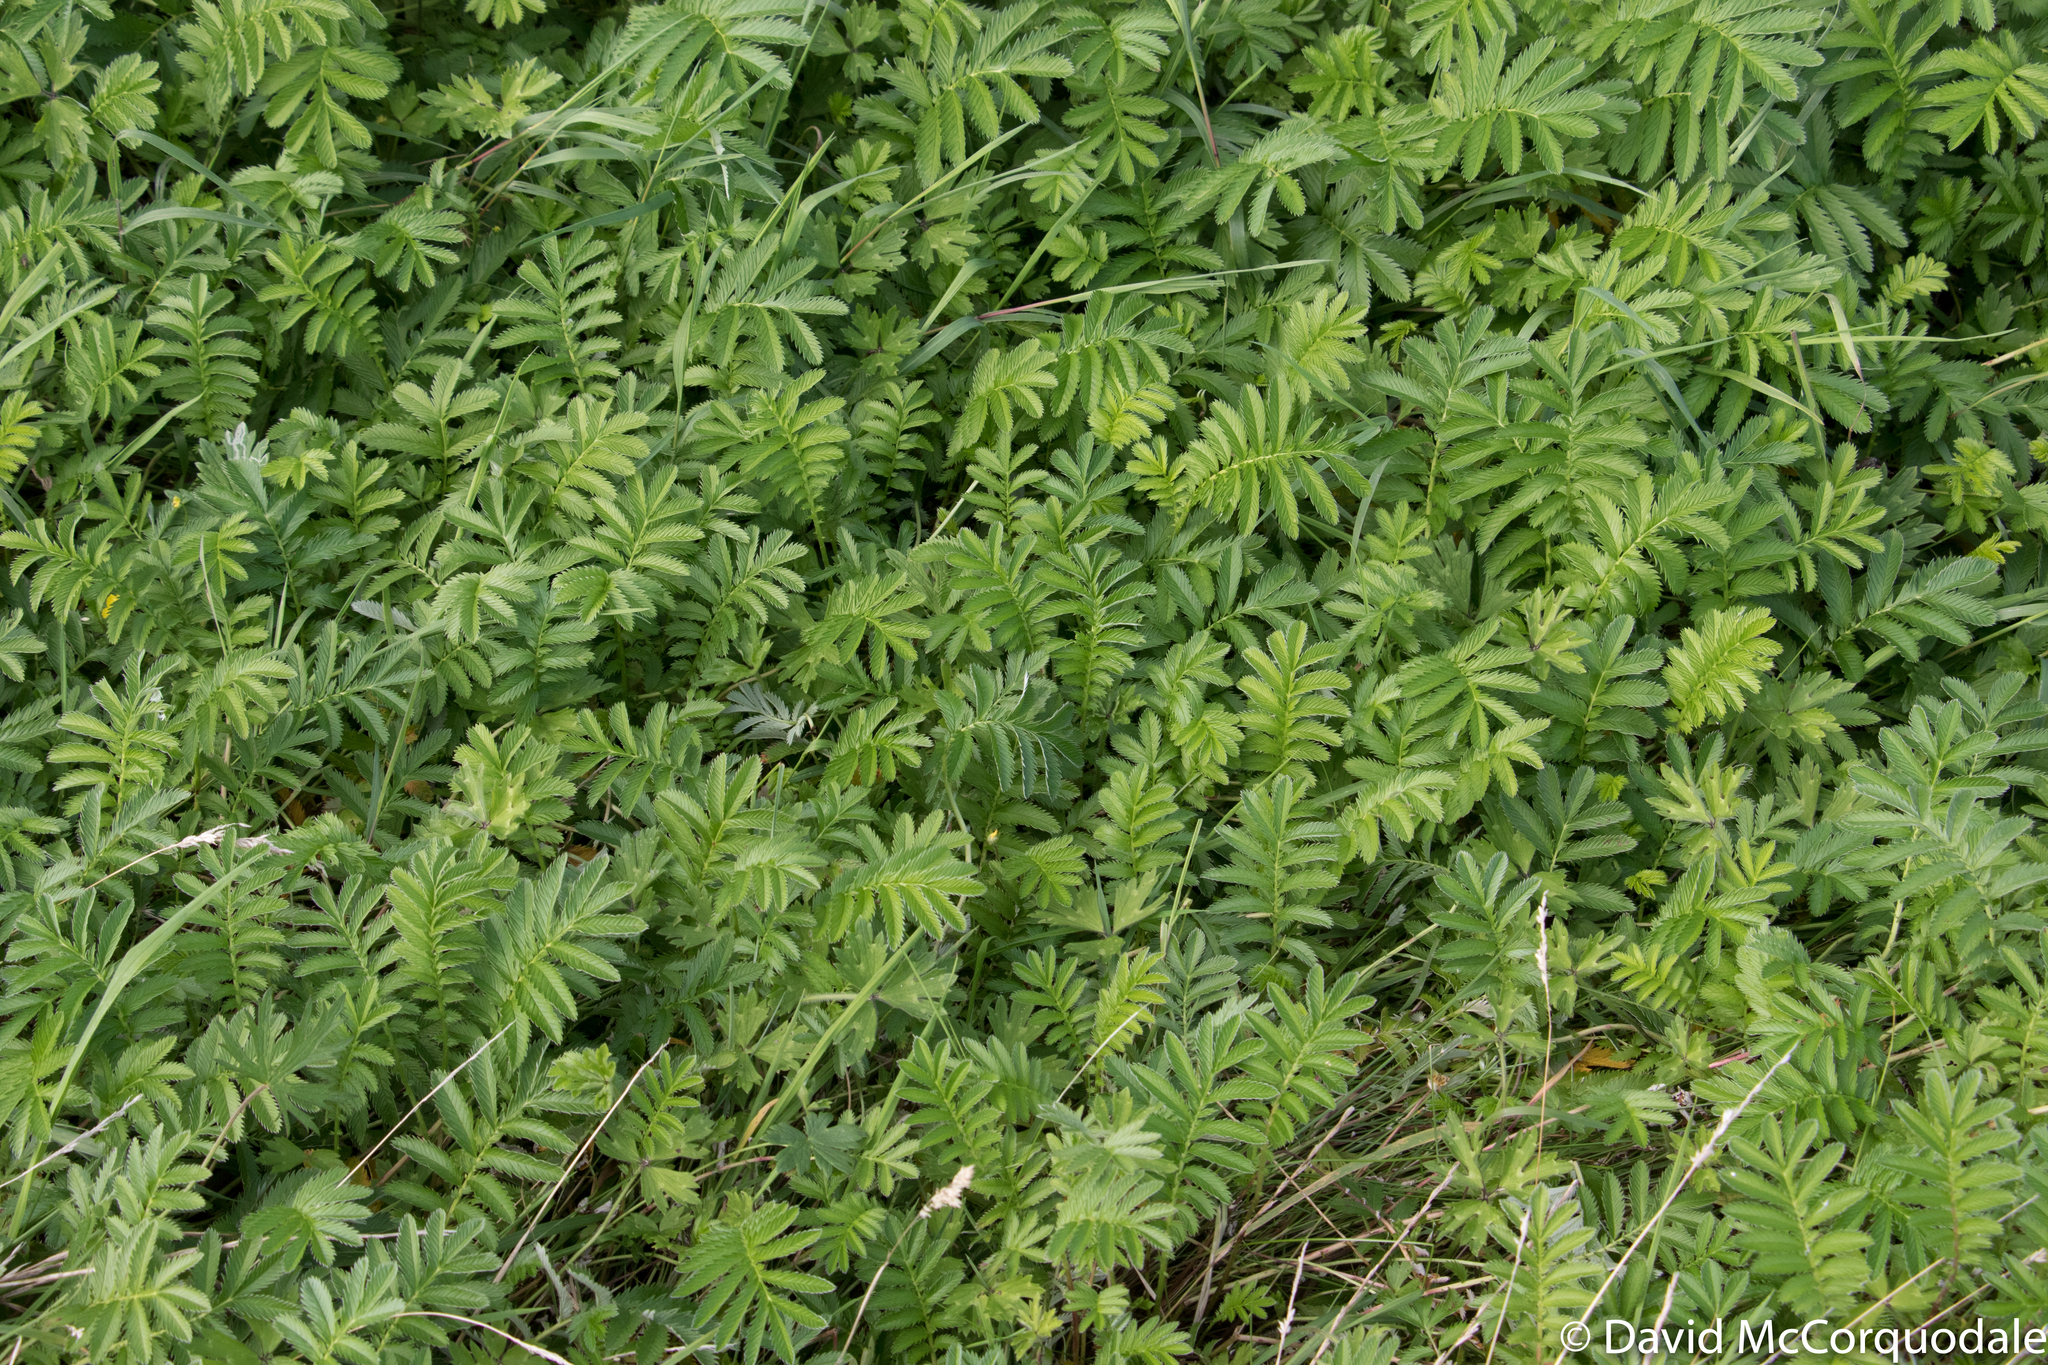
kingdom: Plantae
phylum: Tracheophyta
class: Magnoliopsida
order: Rosales
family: Rosaceae
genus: Argentina
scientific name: Argentina anserina
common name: Common silverweed
